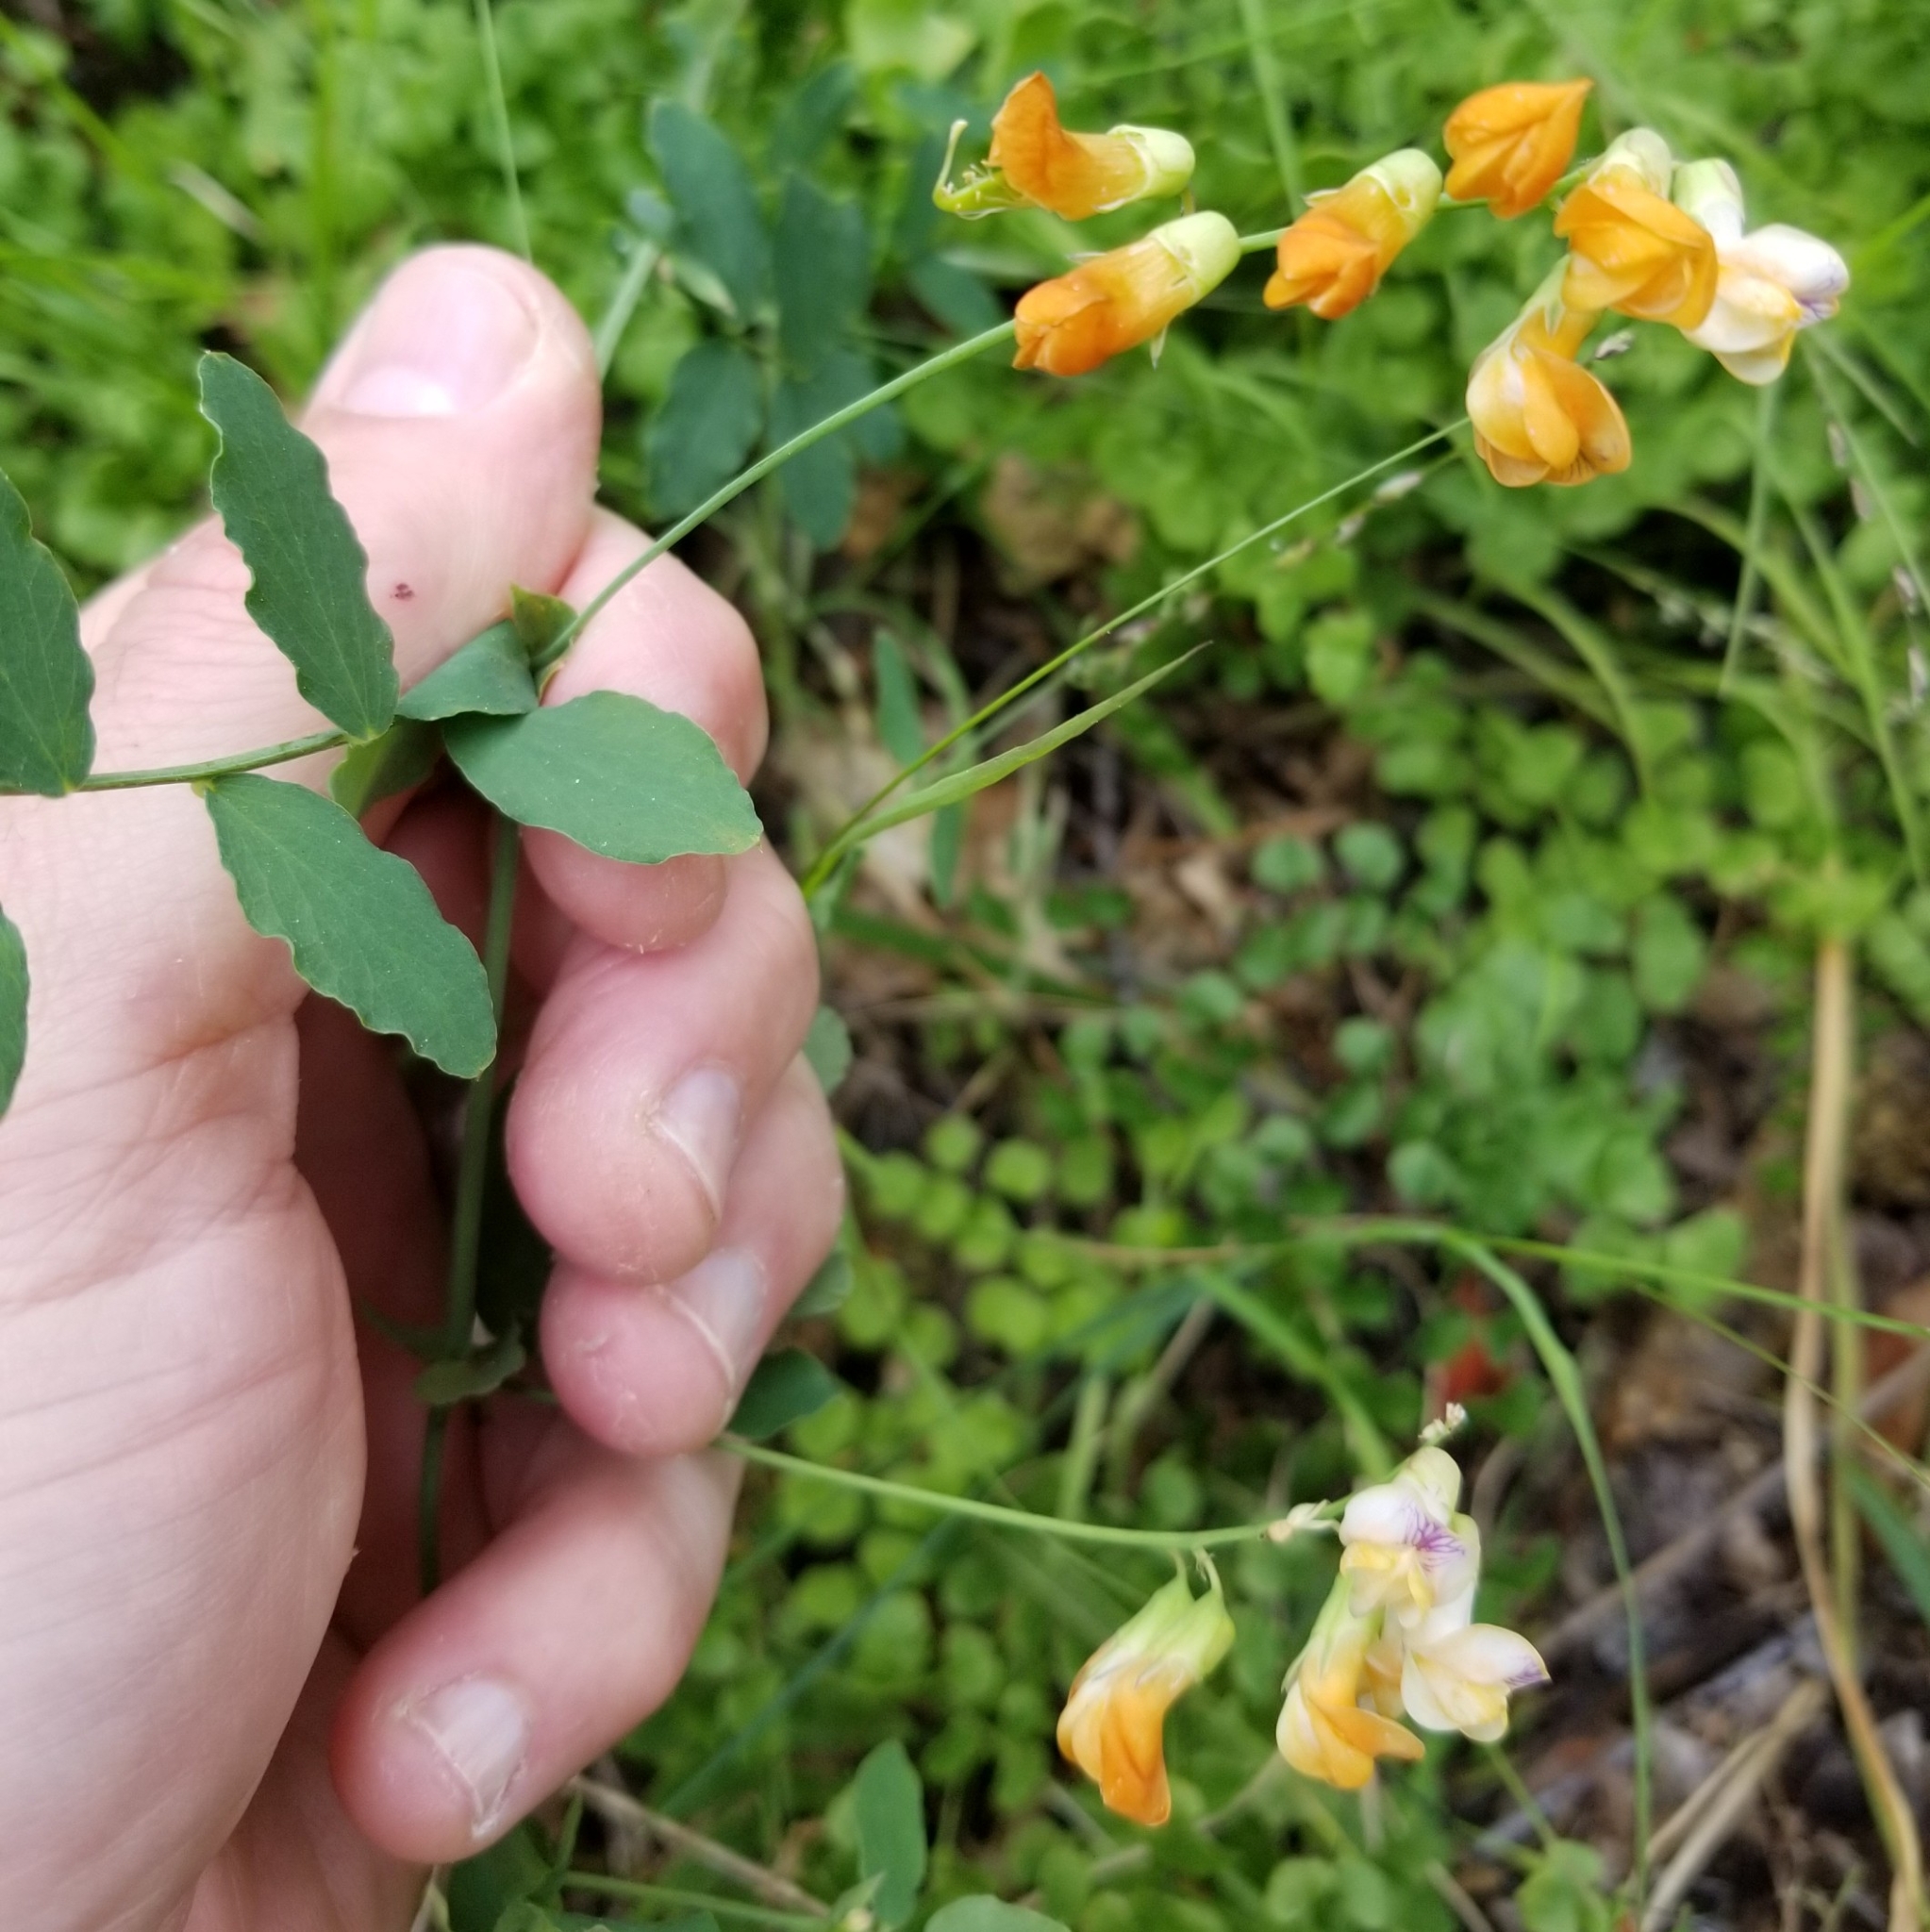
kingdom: Plantae
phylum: Tracheophyta
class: Magnoliopsida
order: Fabales
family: Fabaceae
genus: Lathyrus
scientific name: Lathyrus sulphureus
